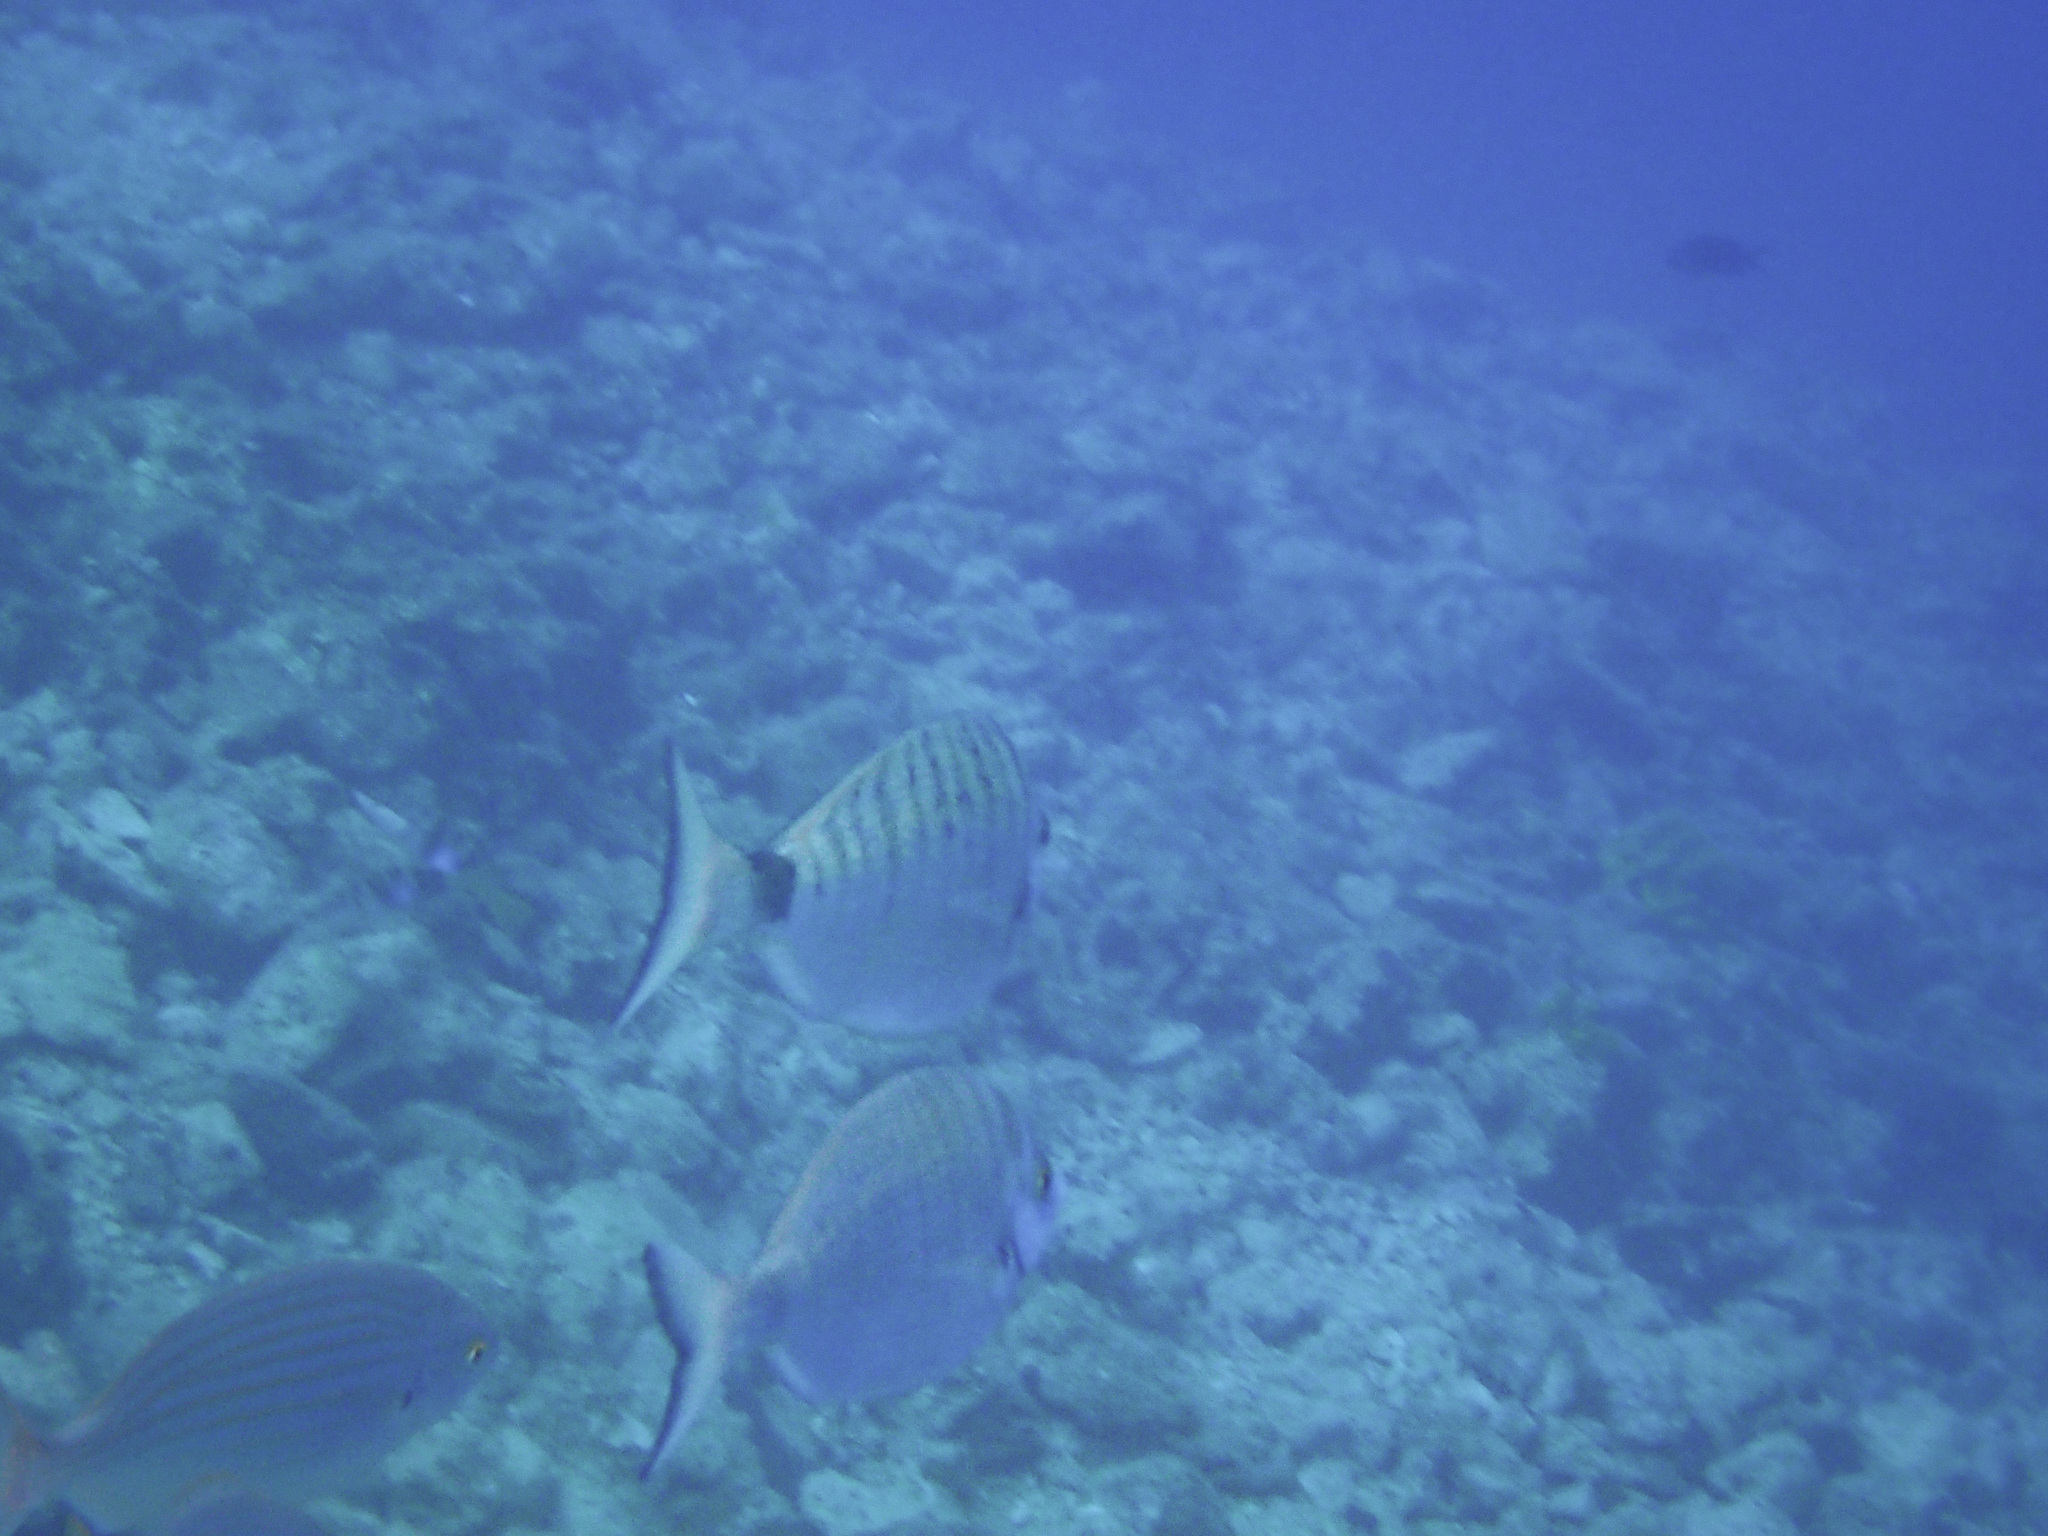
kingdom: Animalia
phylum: Chordata
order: Perciformes
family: Sparidae
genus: Diplodus
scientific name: Diplodus puntazzo
